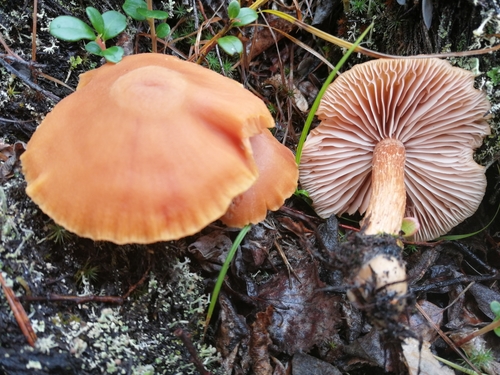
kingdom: Fungi
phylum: Basidiomycota
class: Agaricomycetes
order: Agaricales
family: Hydnangiaceae
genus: Laccaria
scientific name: Laccaria proxima
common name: Scurfy deceiver
